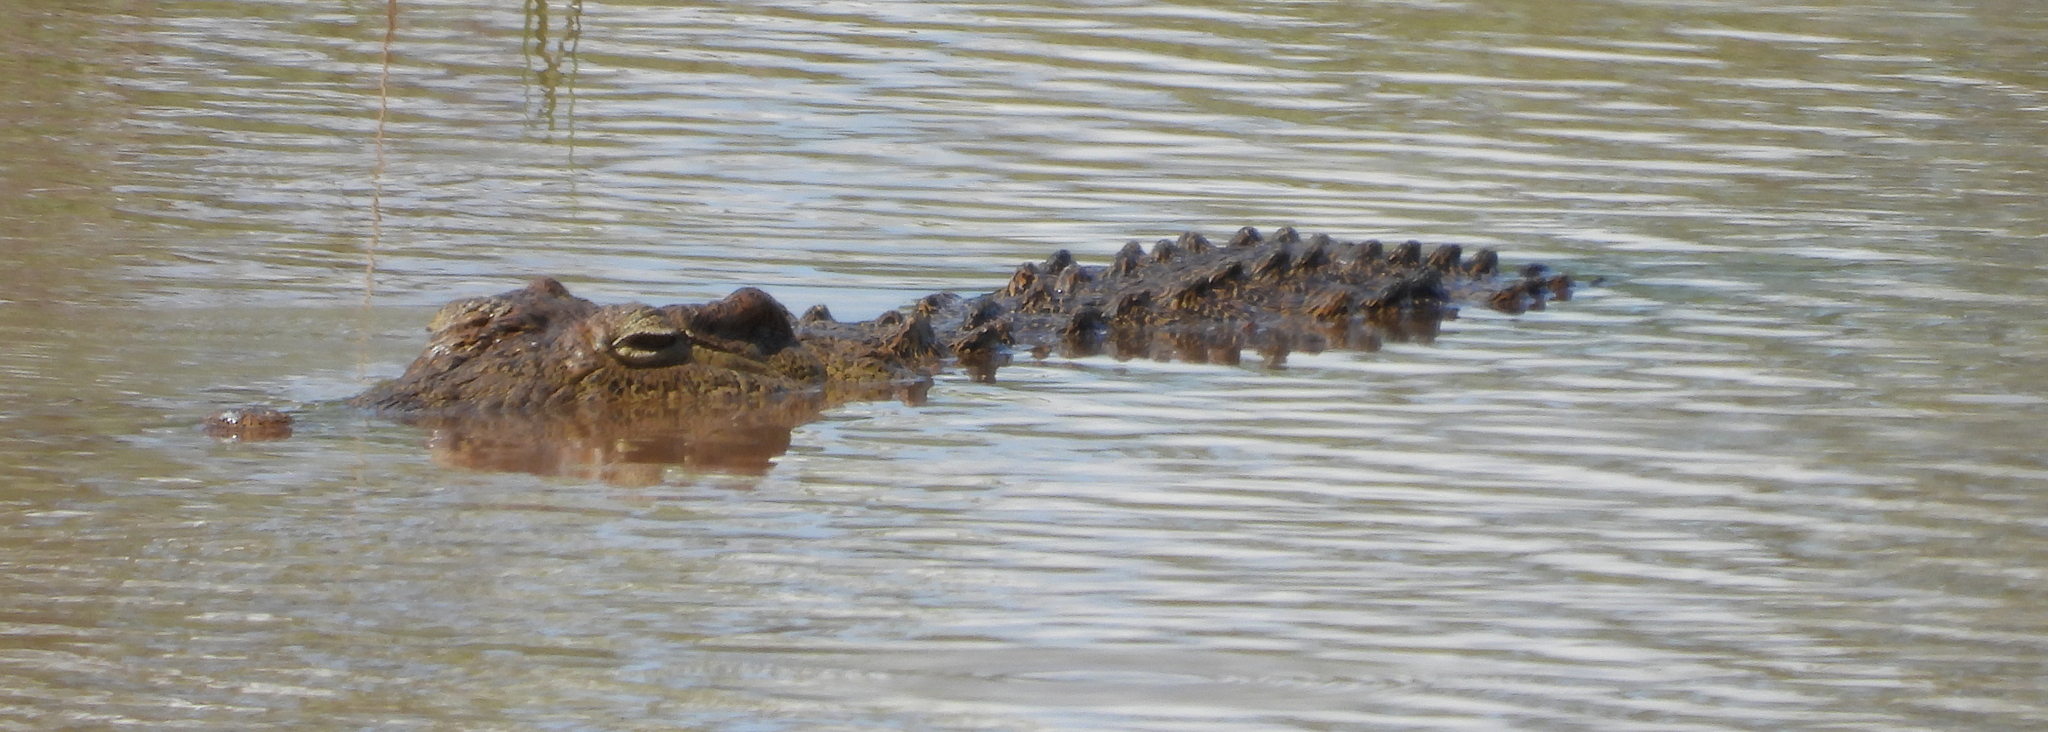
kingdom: Animalia
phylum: Chordata
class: Crocodylia
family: Crocodylidae
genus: Crocodylus
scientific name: Crocodylus niloticus
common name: Nile crocodile
